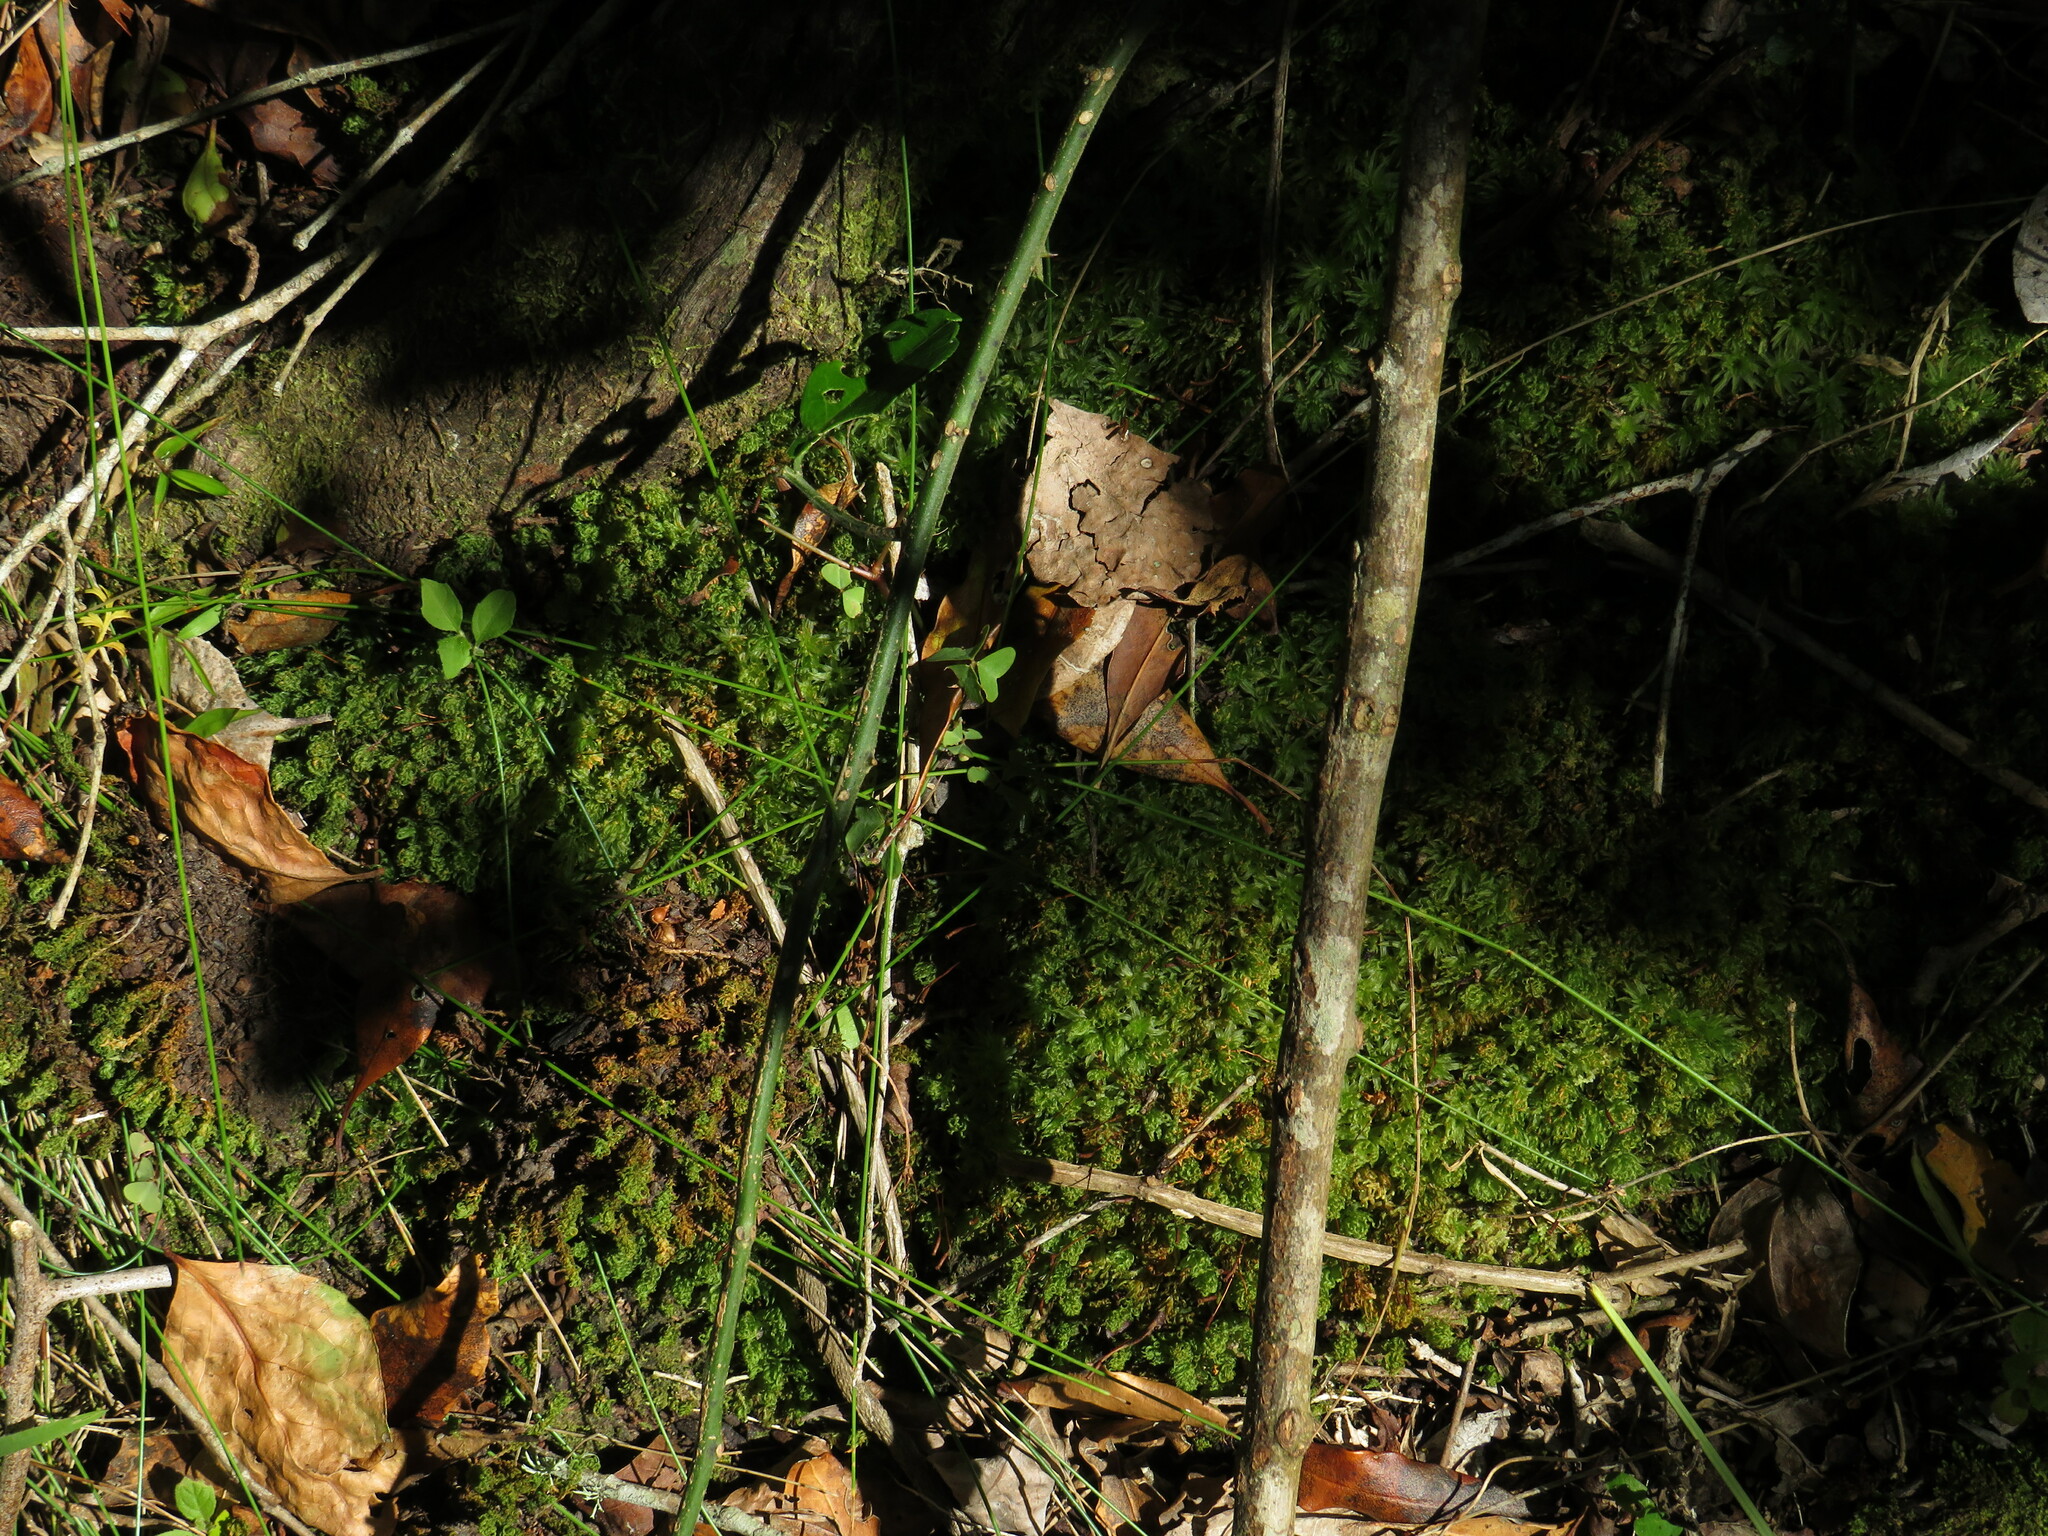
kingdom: Plantae
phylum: Bryophyta
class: Polytrichopsida
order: Polytrichales
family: Polytrichaceae
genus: Atrichum
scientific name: Atrichum androgynum
